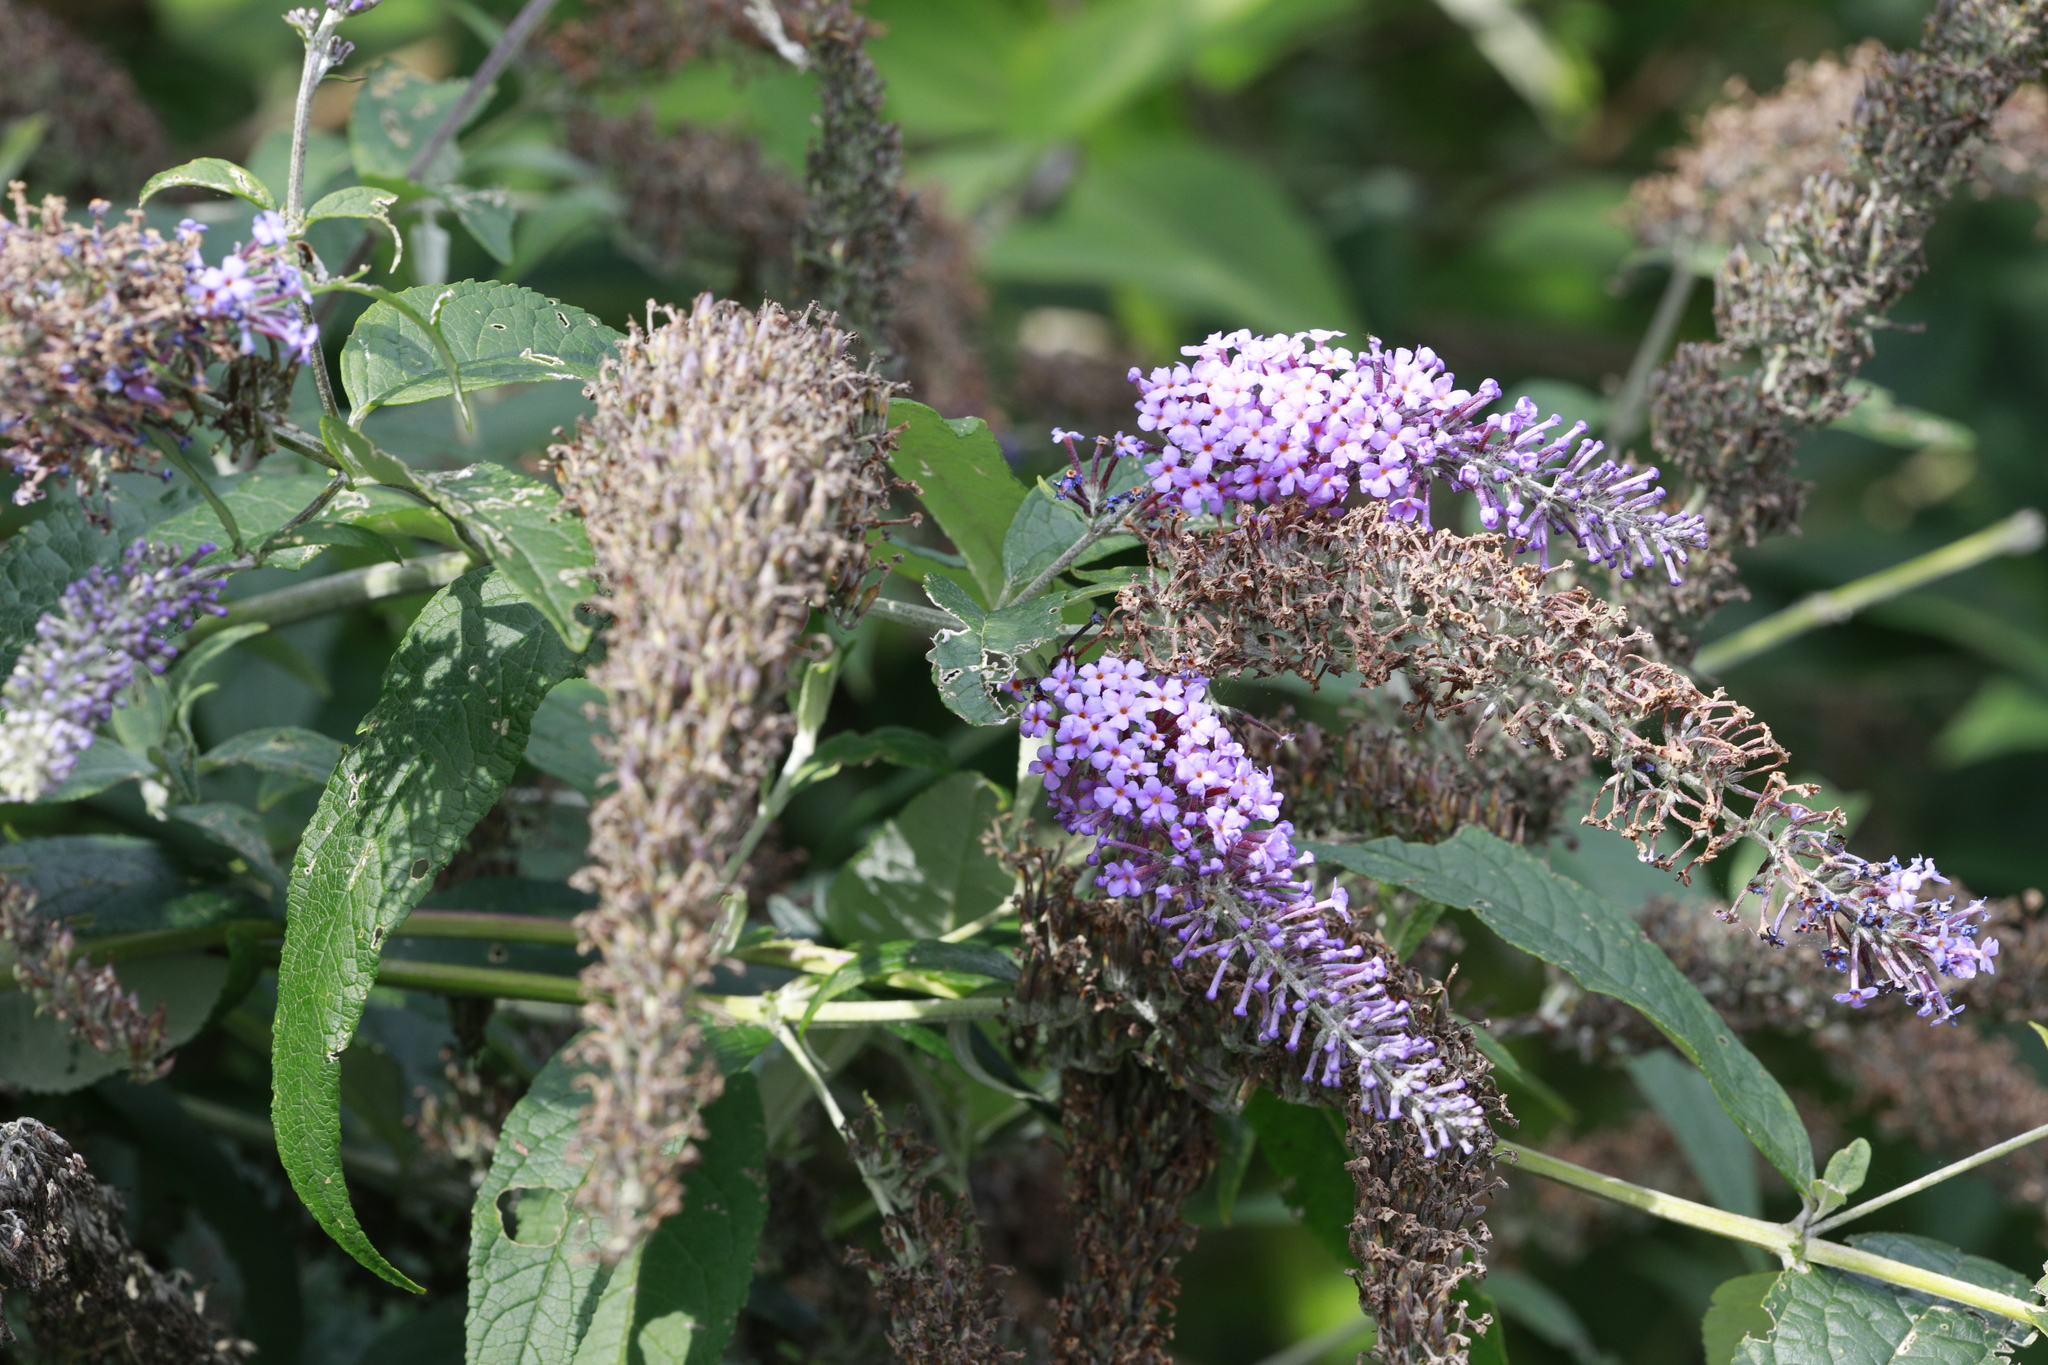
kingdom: Plantae
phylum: Tracheophyta
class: Magnoliopsida
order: Lamiales
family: Scrophulariaceae
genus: Buddleja
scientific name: Buddleja davidii
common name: Butterfly-bush
